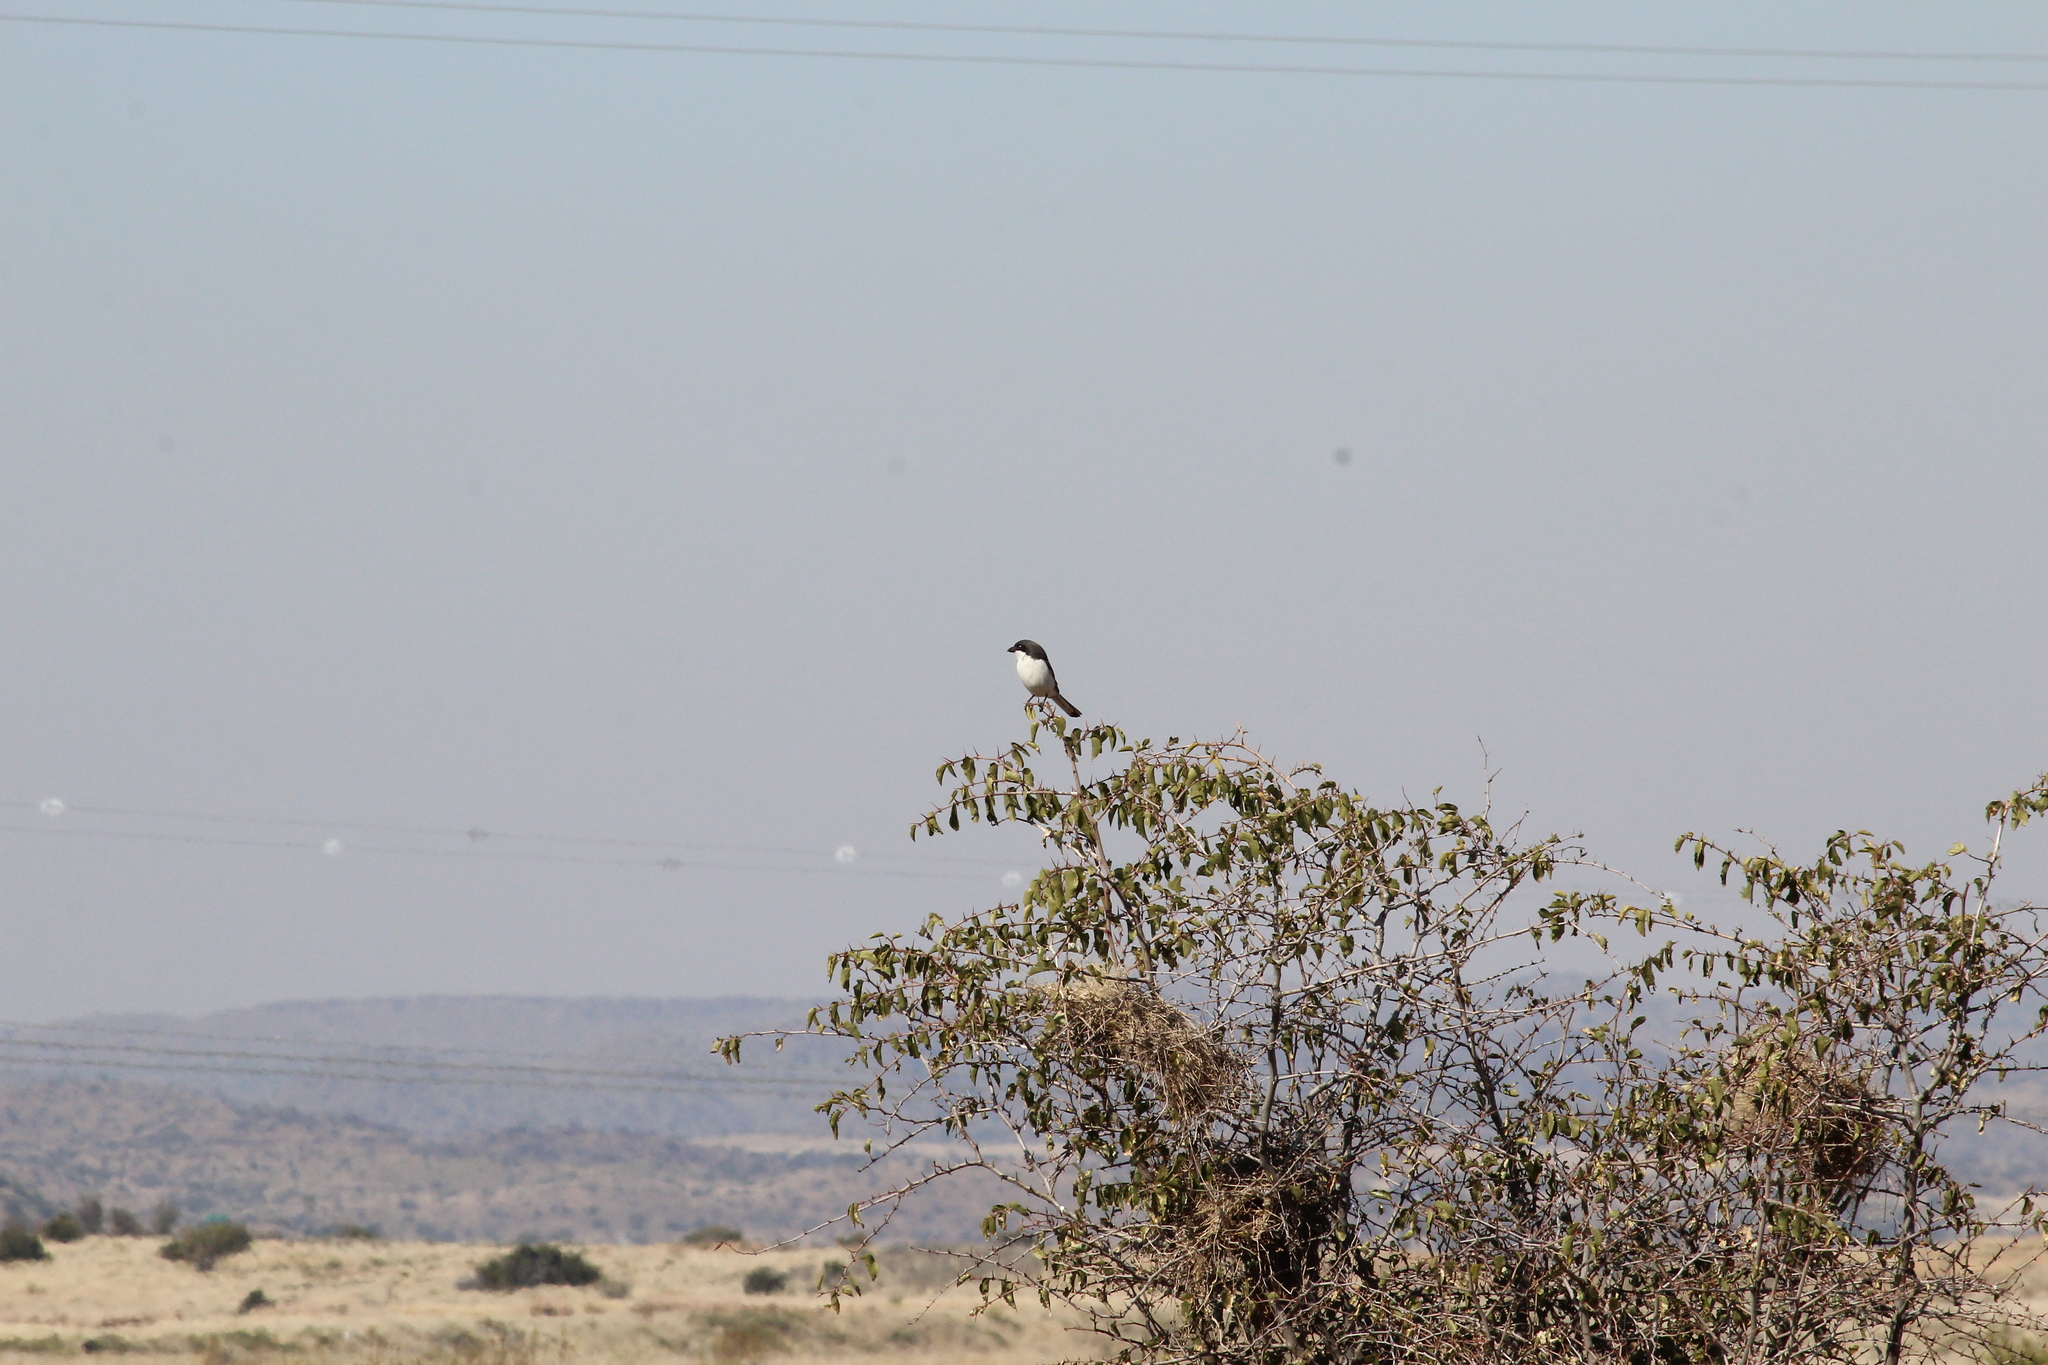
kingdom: Animalia
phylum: Chordata
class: Aves
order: Passeriformes
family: Laniidae
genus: Lanius
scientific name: Lanius collaris
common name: Southern fiscal
